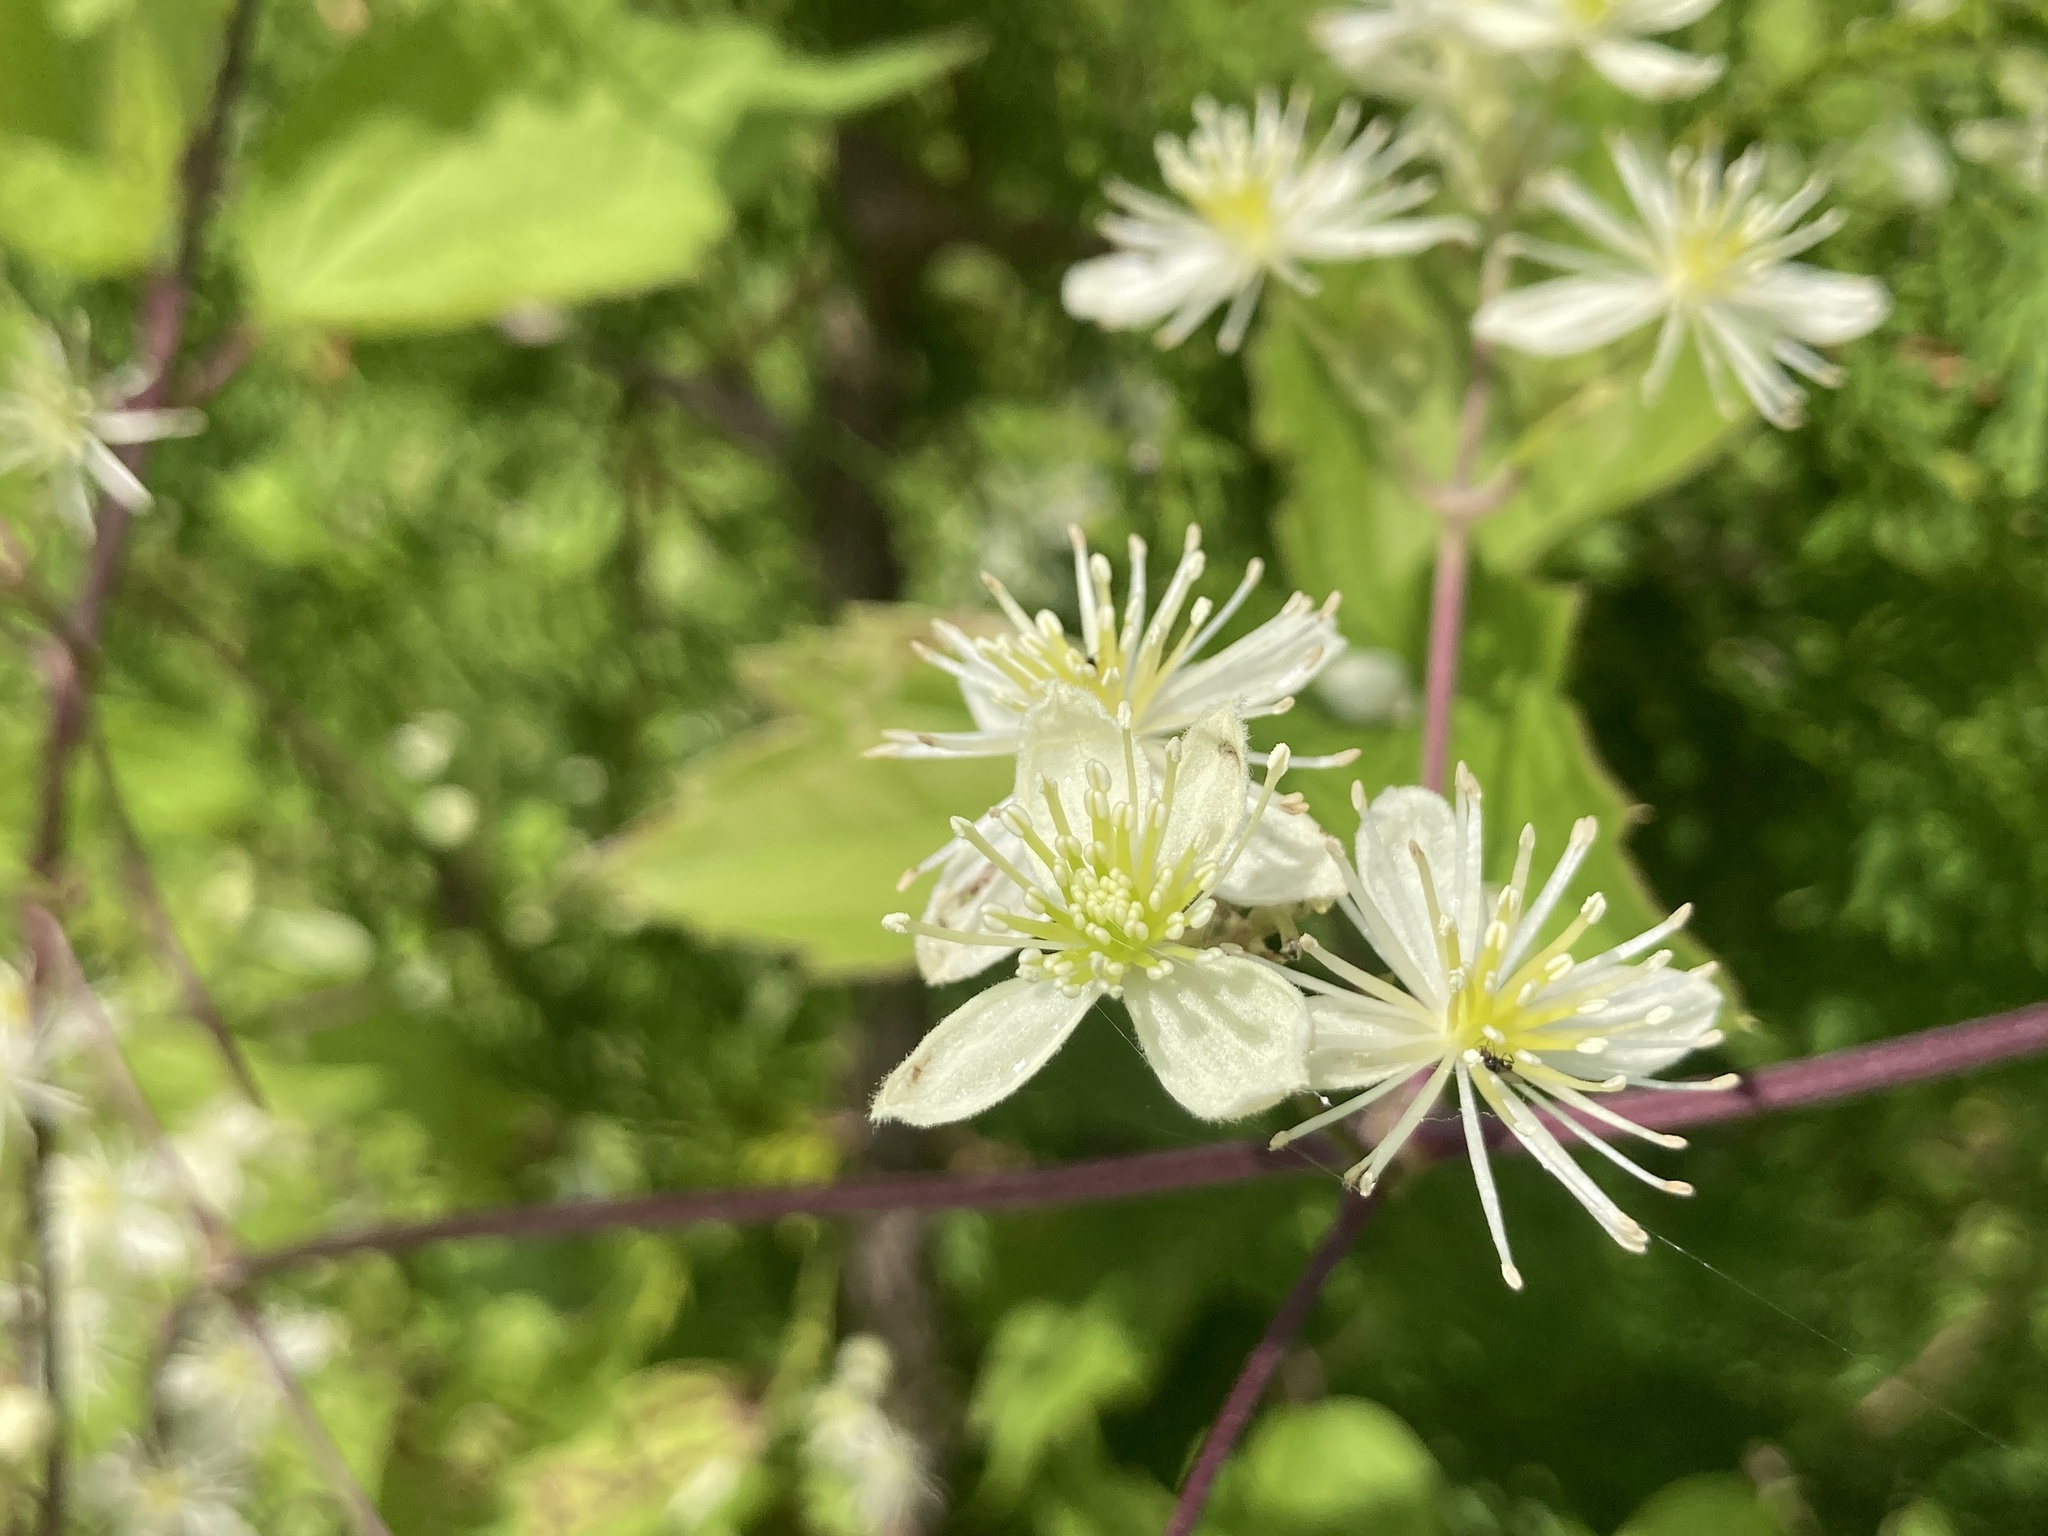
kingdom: Plantae
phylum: Tracheophyta
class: Magnoliopsida
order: Ranunculales
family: Ranunculaceae
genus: Clematis
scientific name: Clematis virginiana
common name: Virgin's-bower
